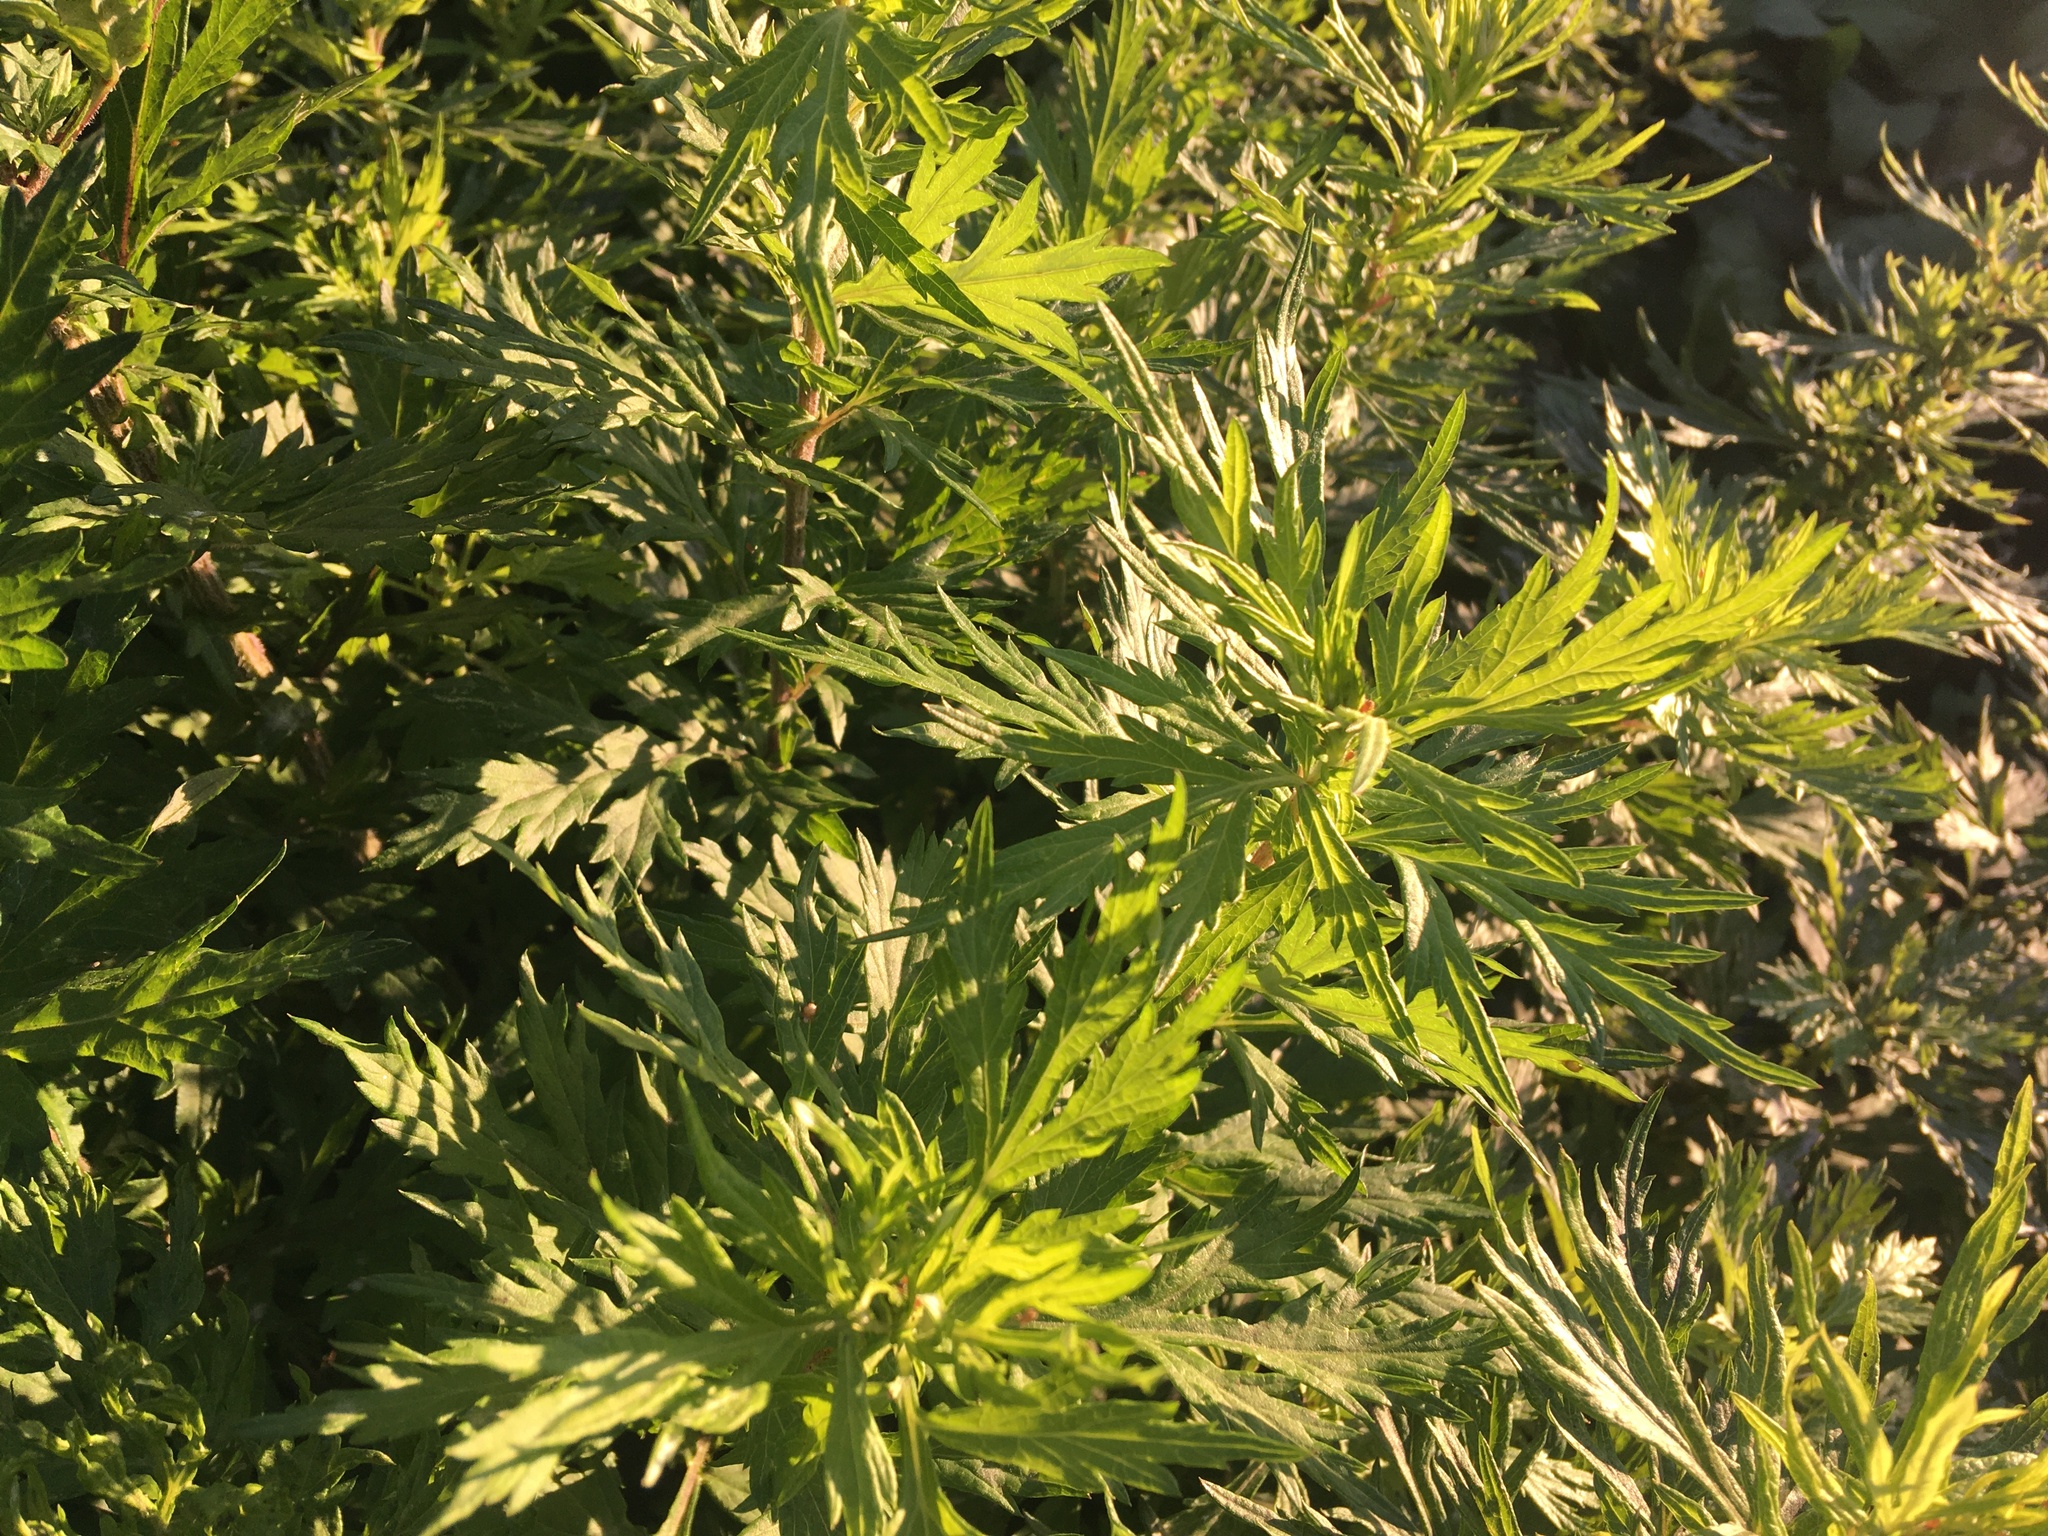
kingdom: Plantae
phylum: Tracheophyta
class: Magnoliopsida
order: Asterales
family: Asteraceae
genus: Artemisia
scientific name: Artemisia vulgaris
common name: Mugwort
